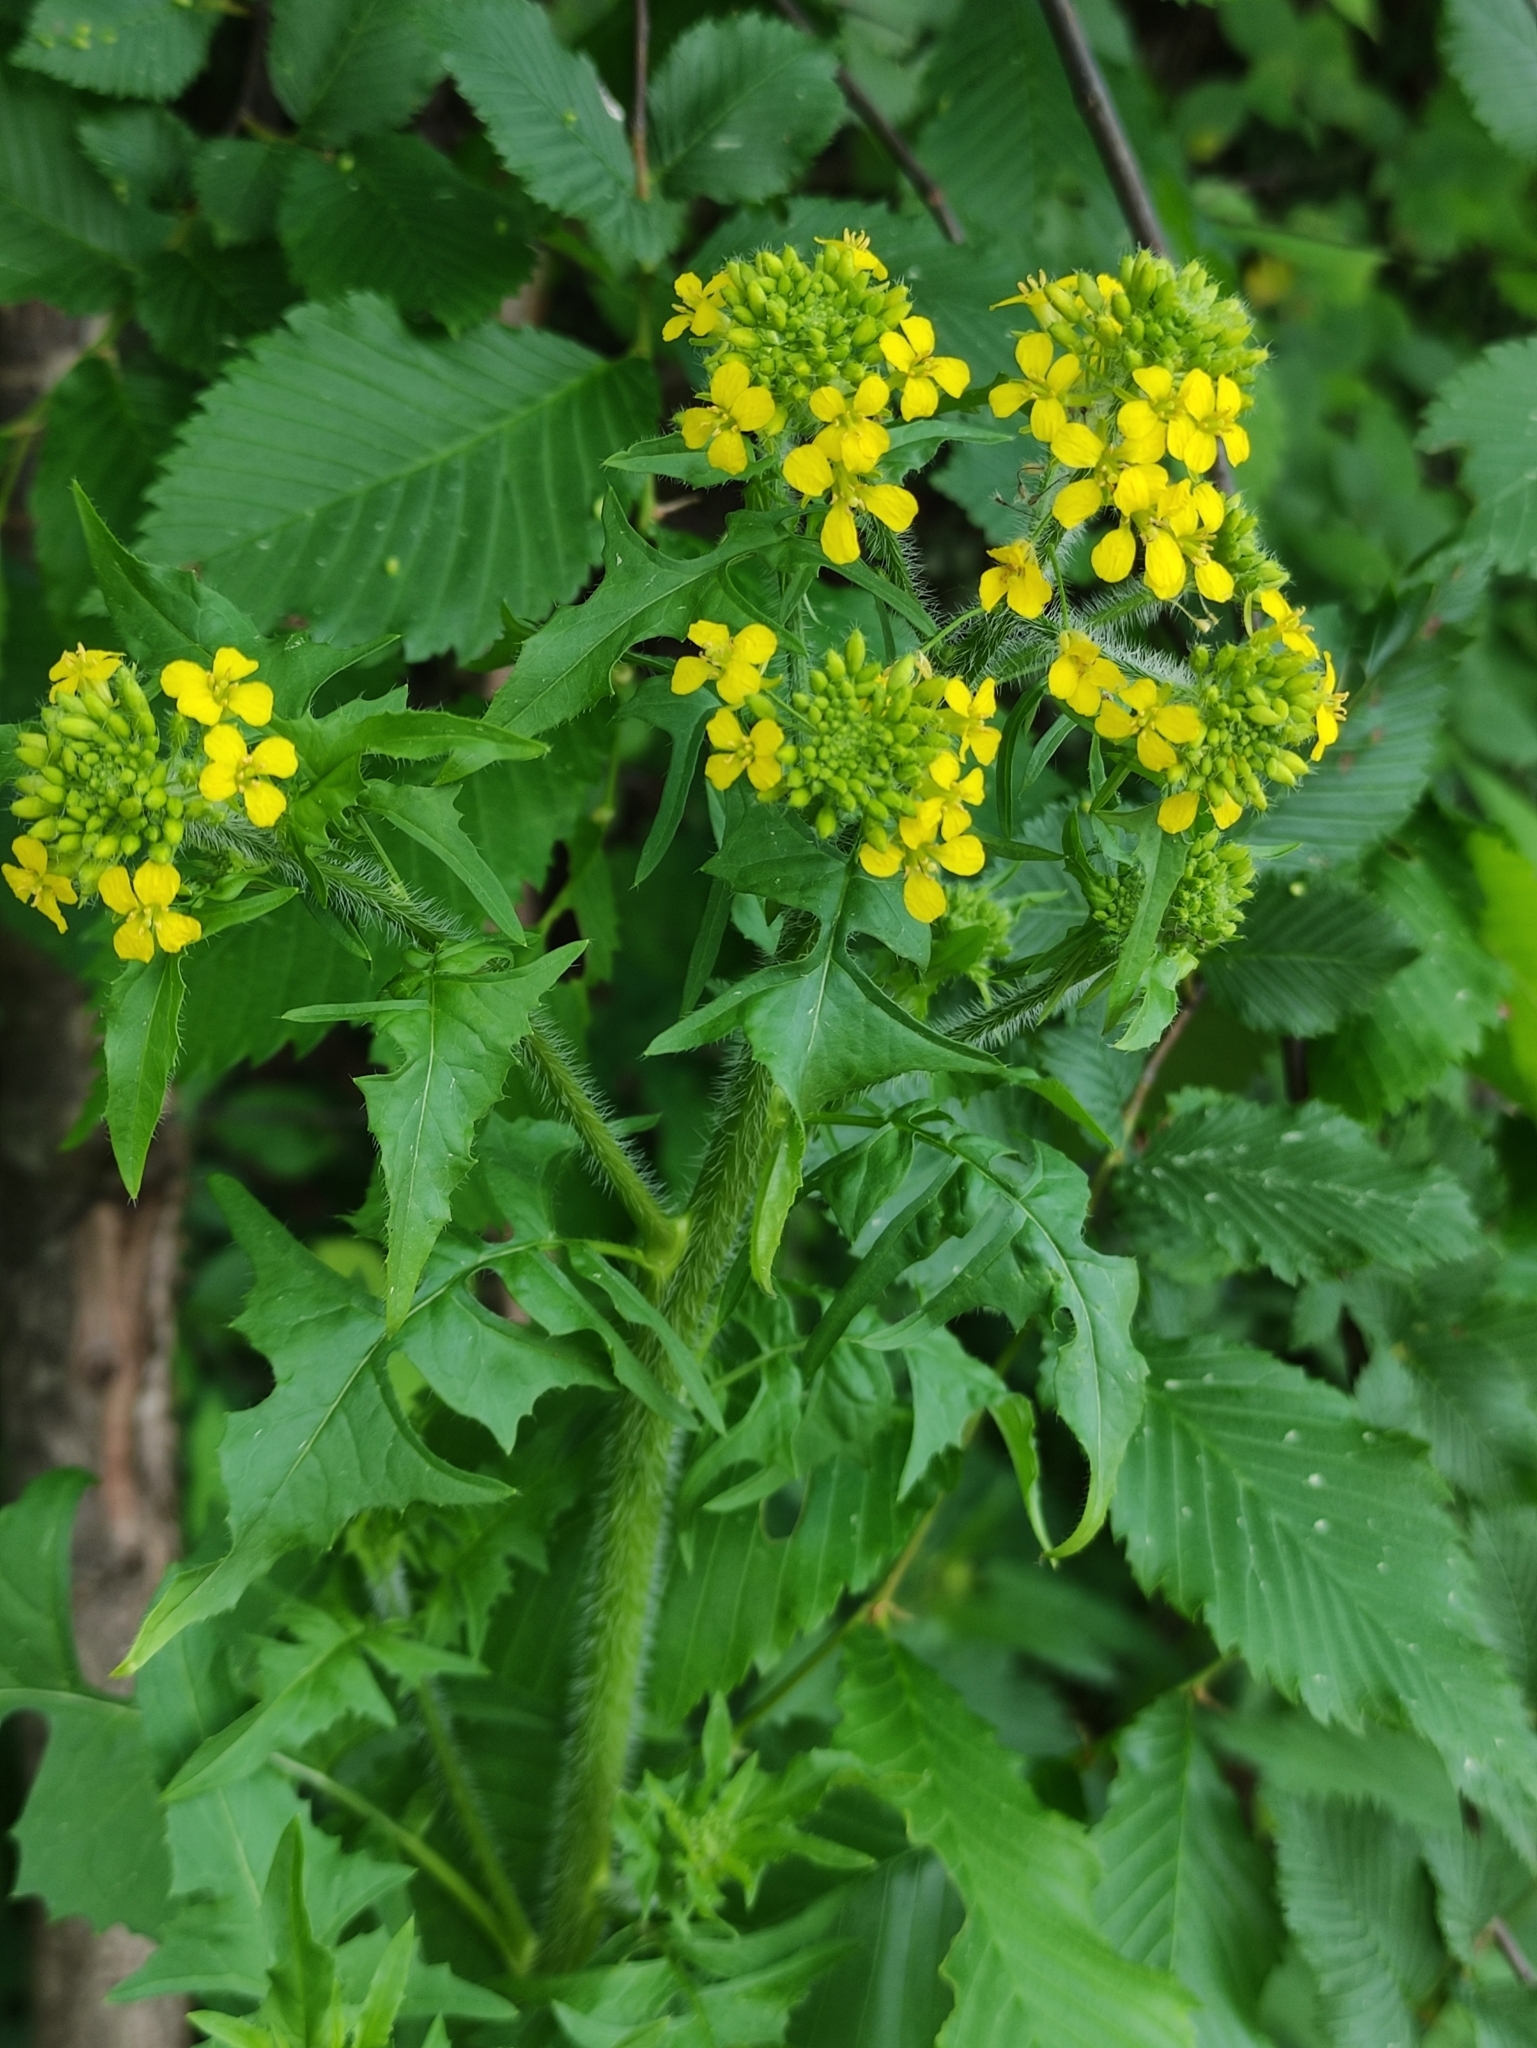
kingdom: Plantae
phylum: Tracheophyta
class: Magnoliopsida
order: Brassicales
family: Brassicaceae
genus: Sisymbrium
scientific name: Sisymbrium loeselii
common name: False london-rocket
